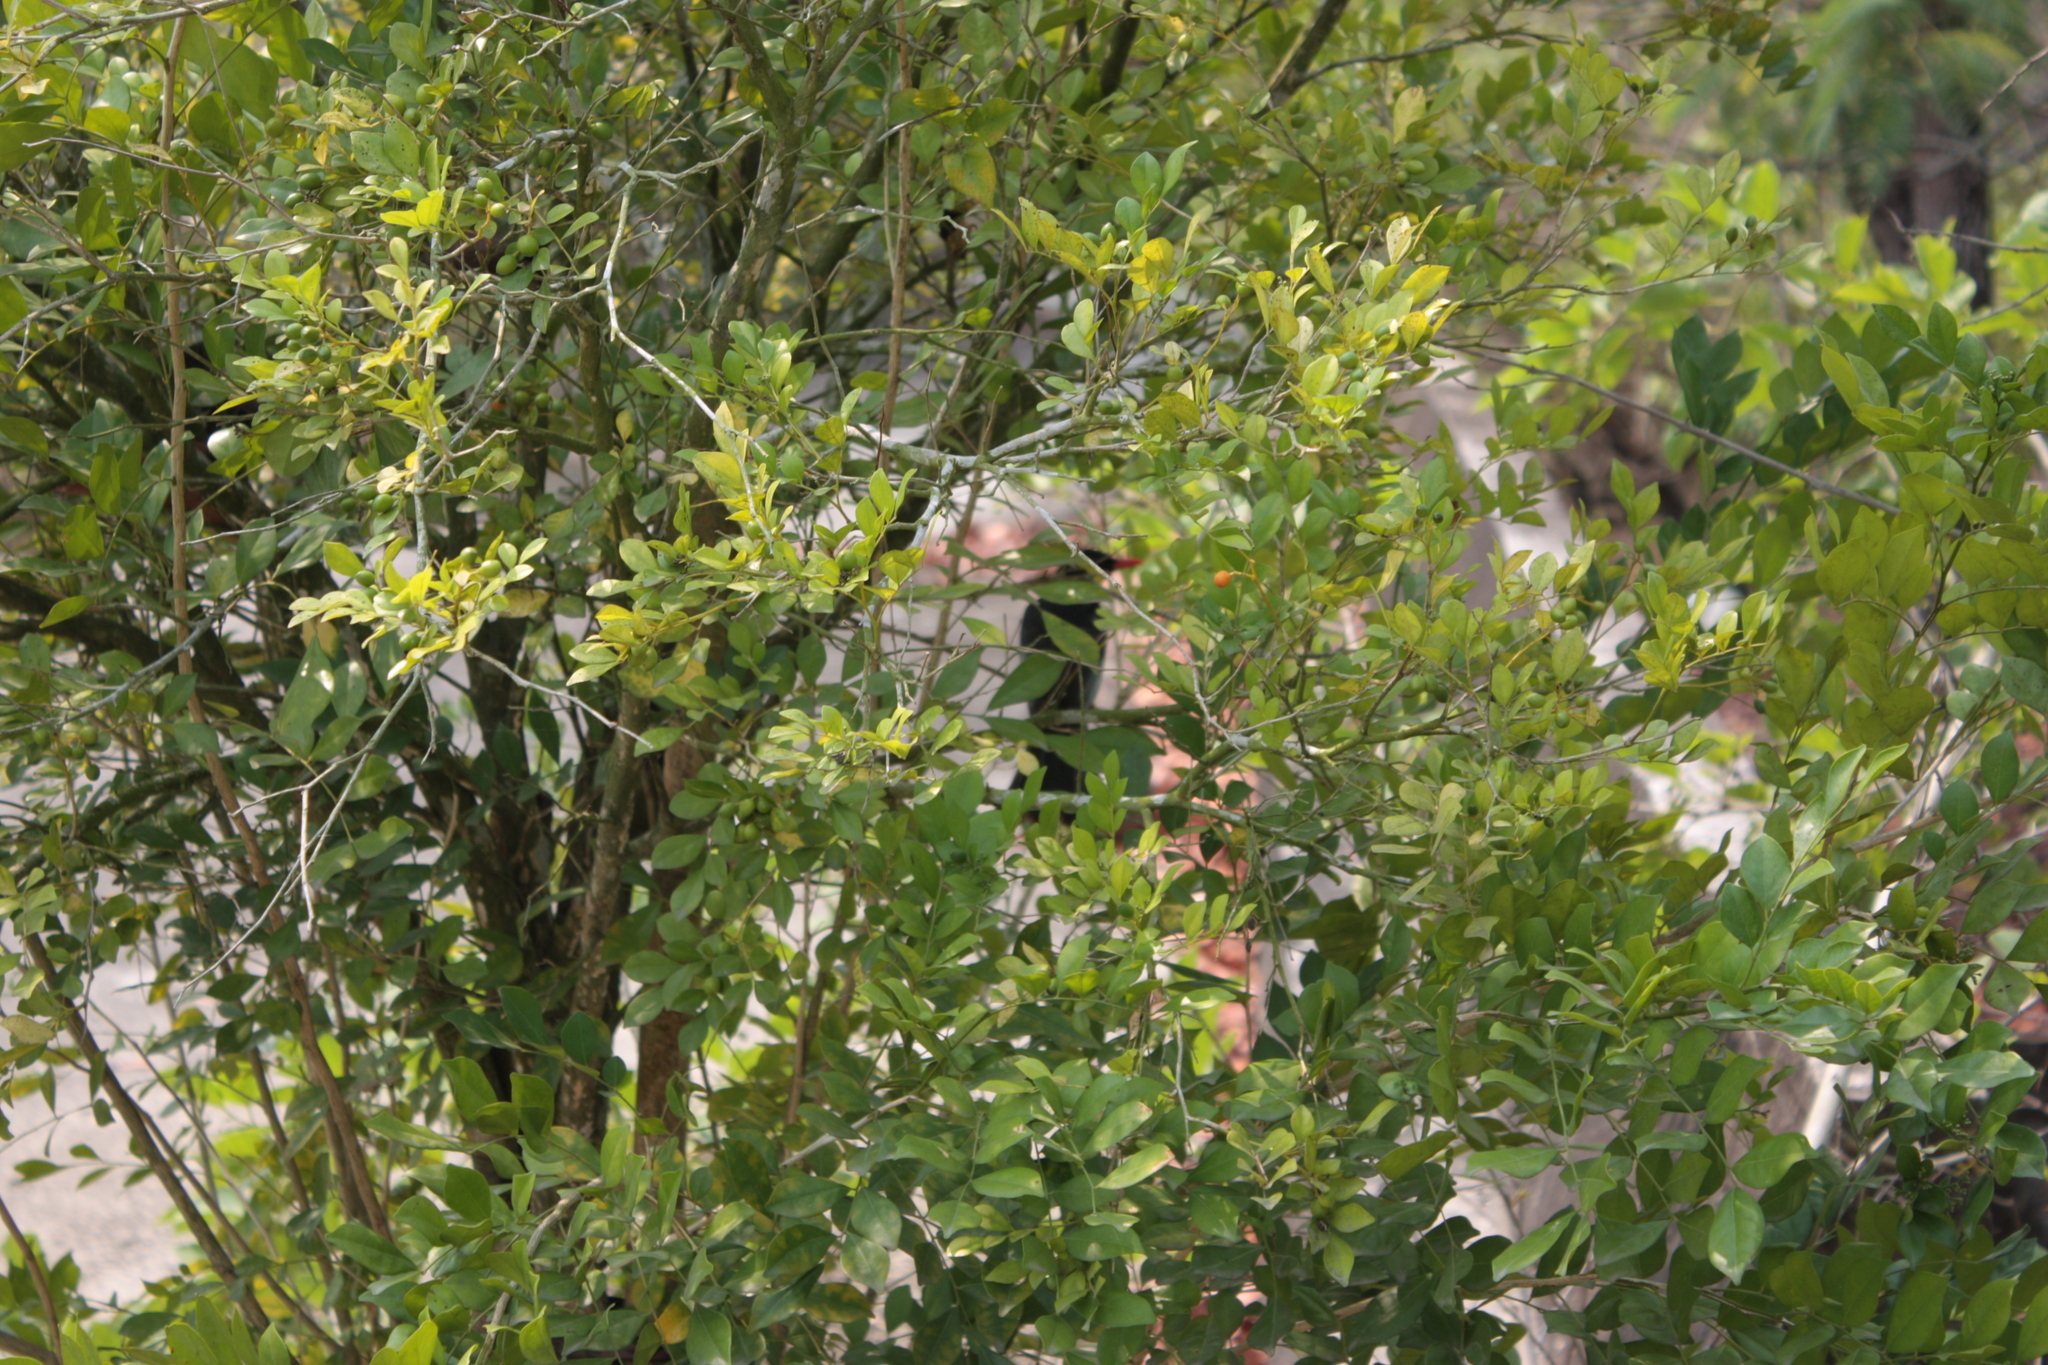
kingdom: Animalia
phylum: Chordata
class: Aves
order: Passeriformes
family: Pycnonotidae
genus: Hypsipetes
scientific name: Hypsipetes leucocephalus
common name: Black bulbul
